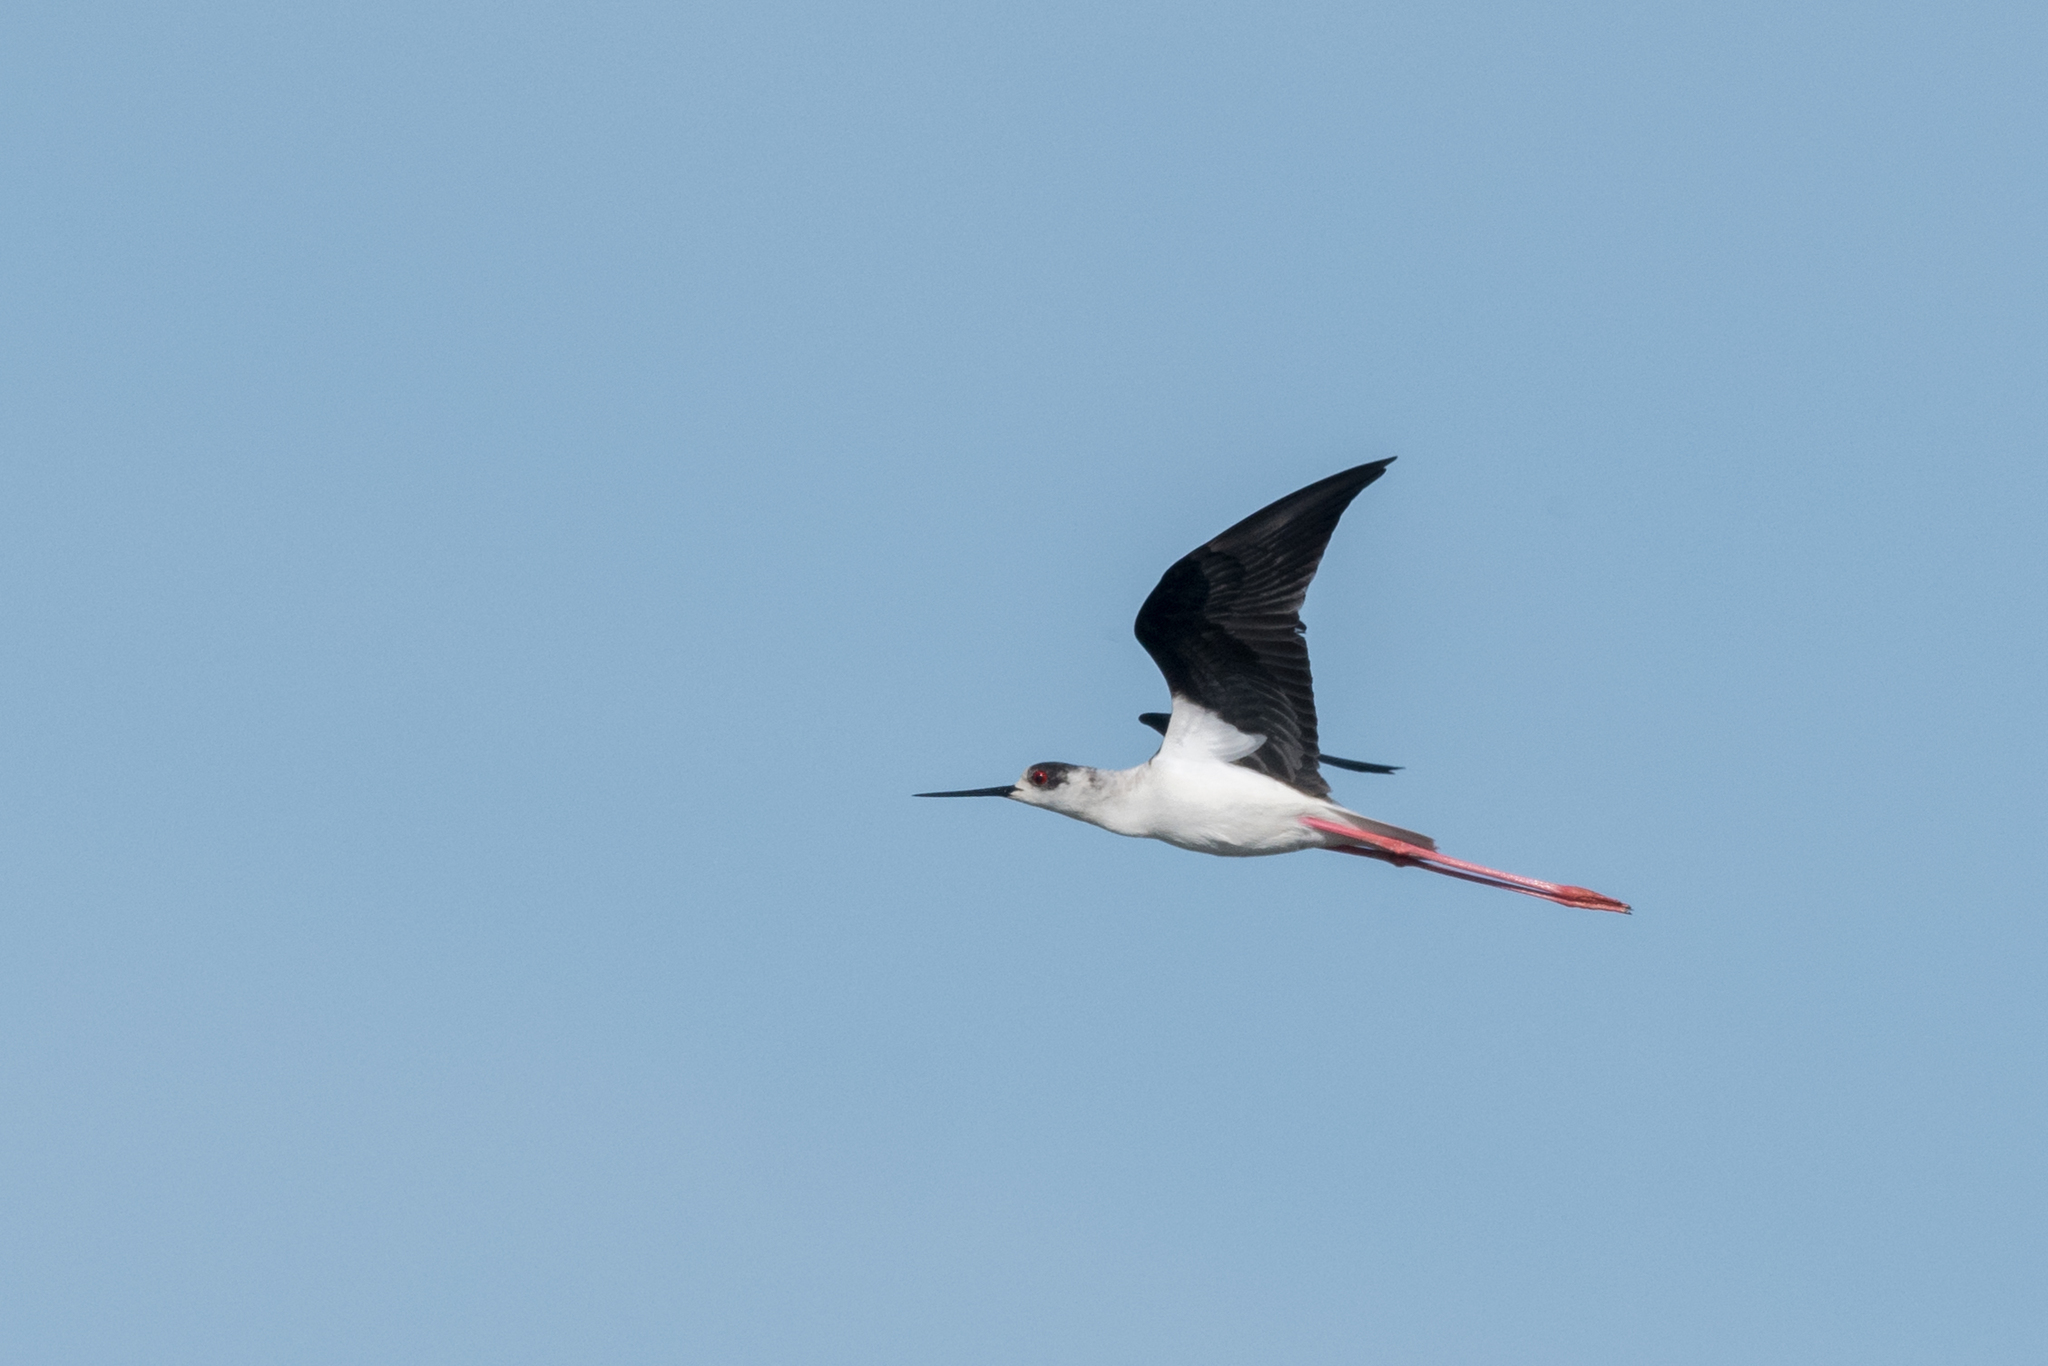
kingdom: Animalia
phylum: Chordata
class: Aves
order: Charadriiformes
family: Recurvirostridae
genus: Himantopus
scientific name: Himantopus himantopus
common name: Black-winged stilt
